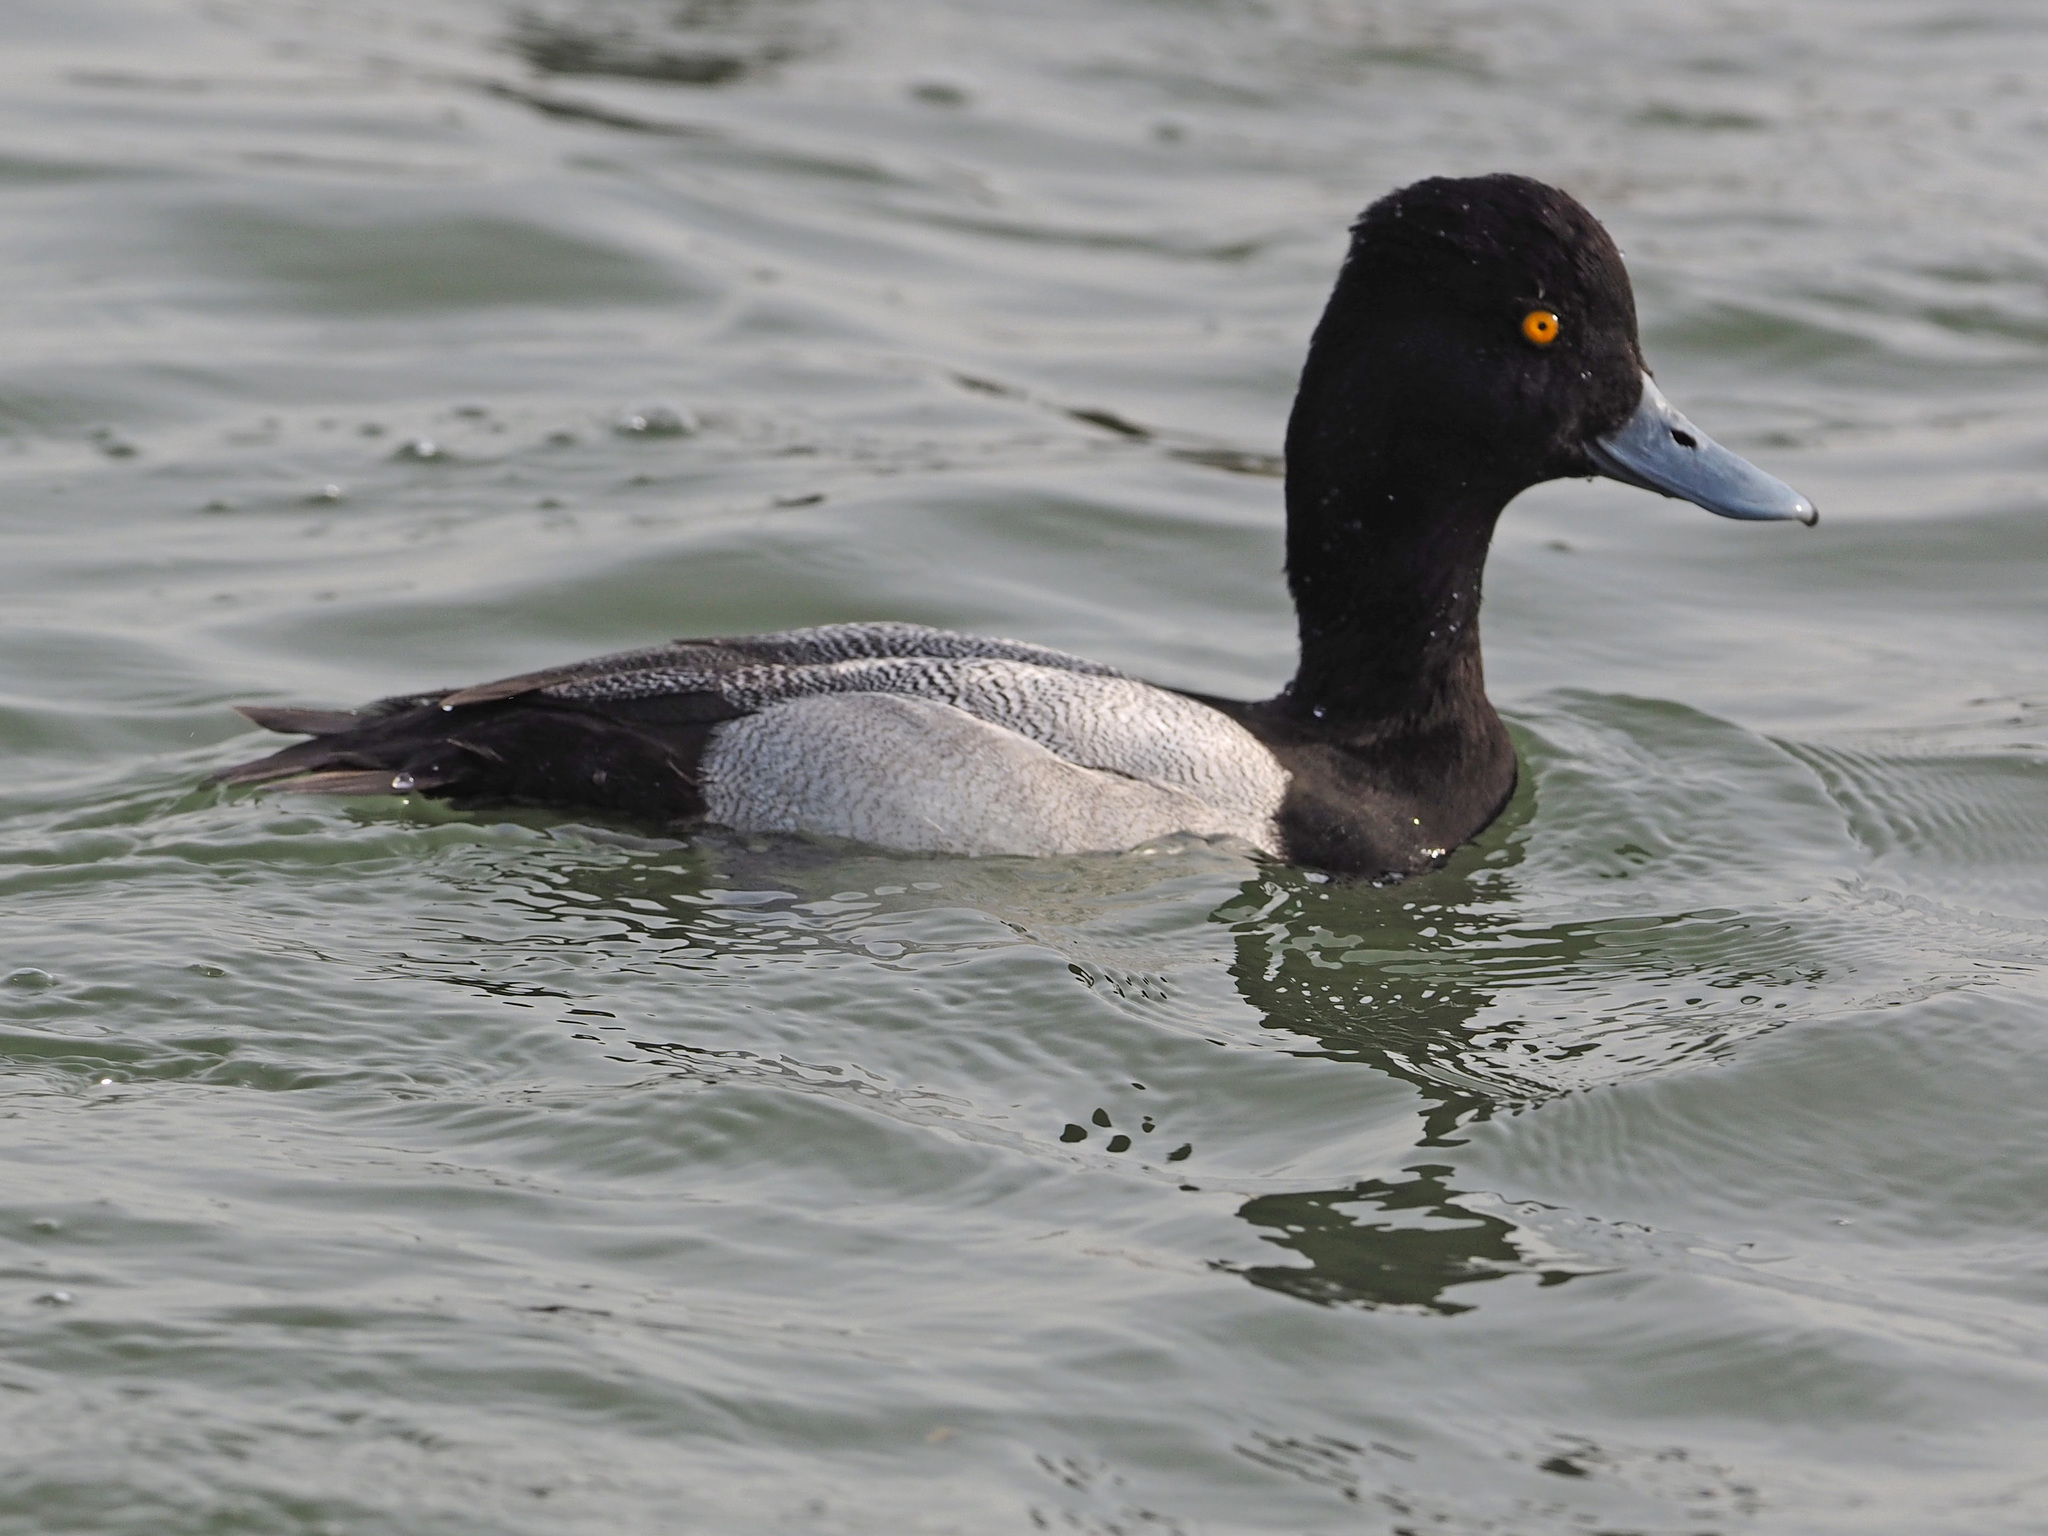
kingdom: Animalia
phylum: Chordata
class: Aves
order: Anseriformes
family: Anatidae
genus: Aythya
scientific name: Aythya affinis
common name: Lesser scaup
